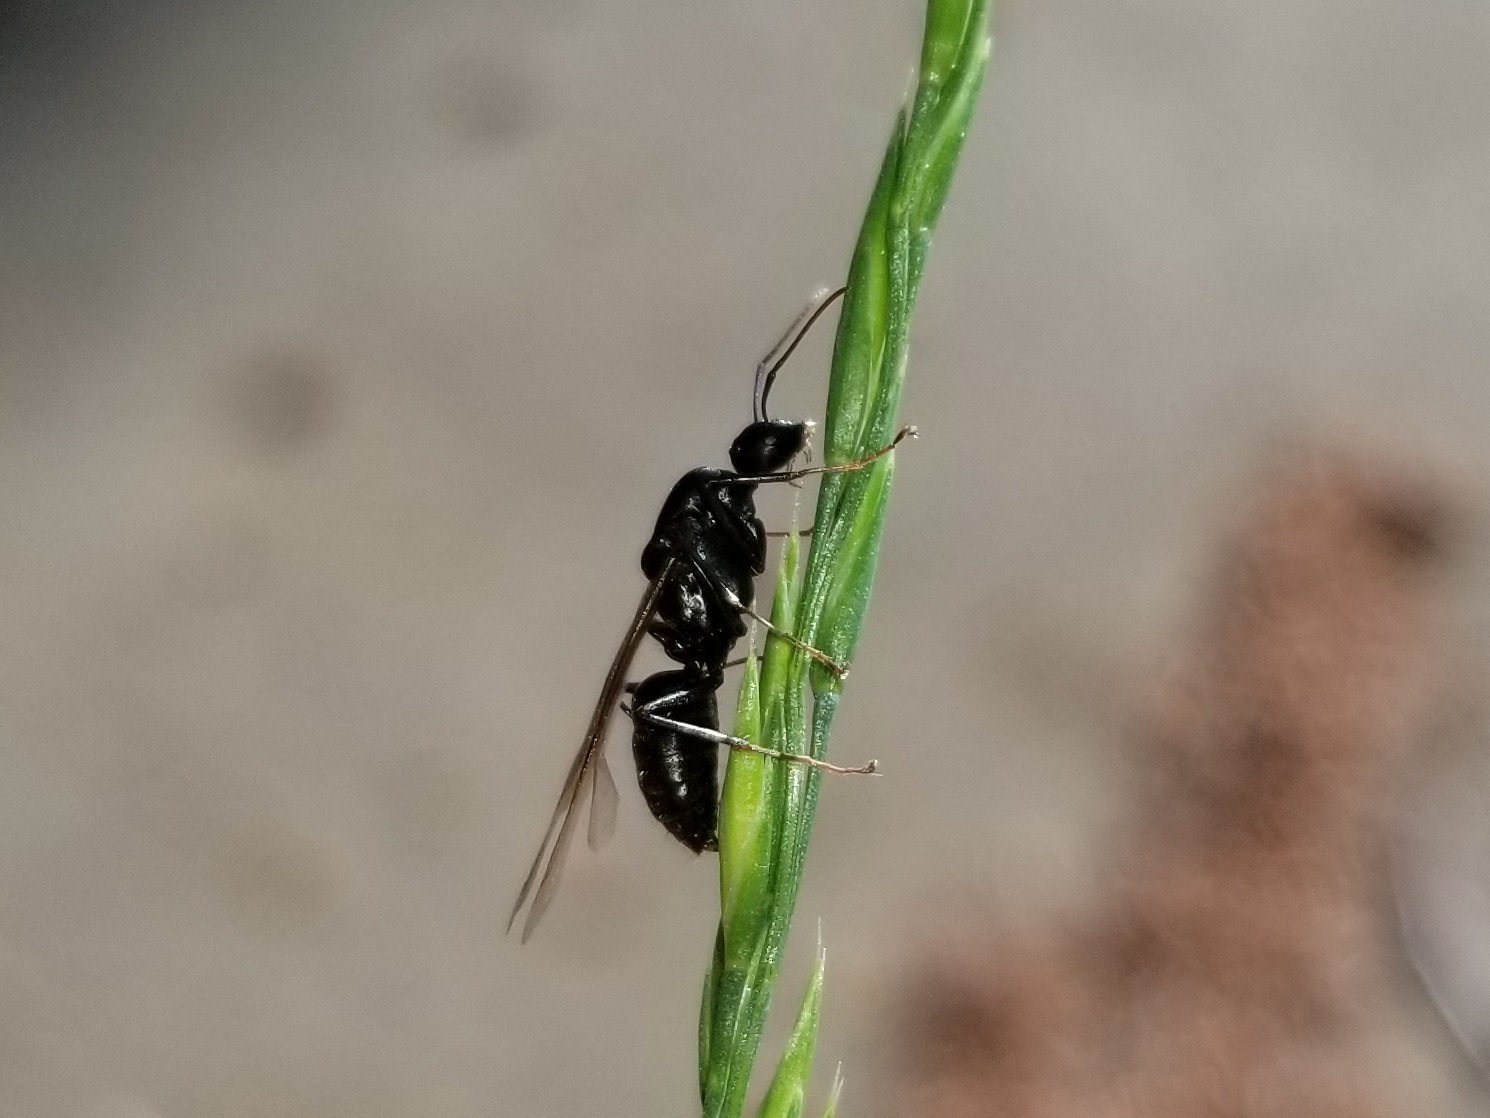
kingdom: Animalia
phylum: Arthropoda
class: Insecta
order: Hymenoptera
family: Formicidae
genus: Camponotus
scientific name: Camponotus herculeanus
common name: Hercules ant
